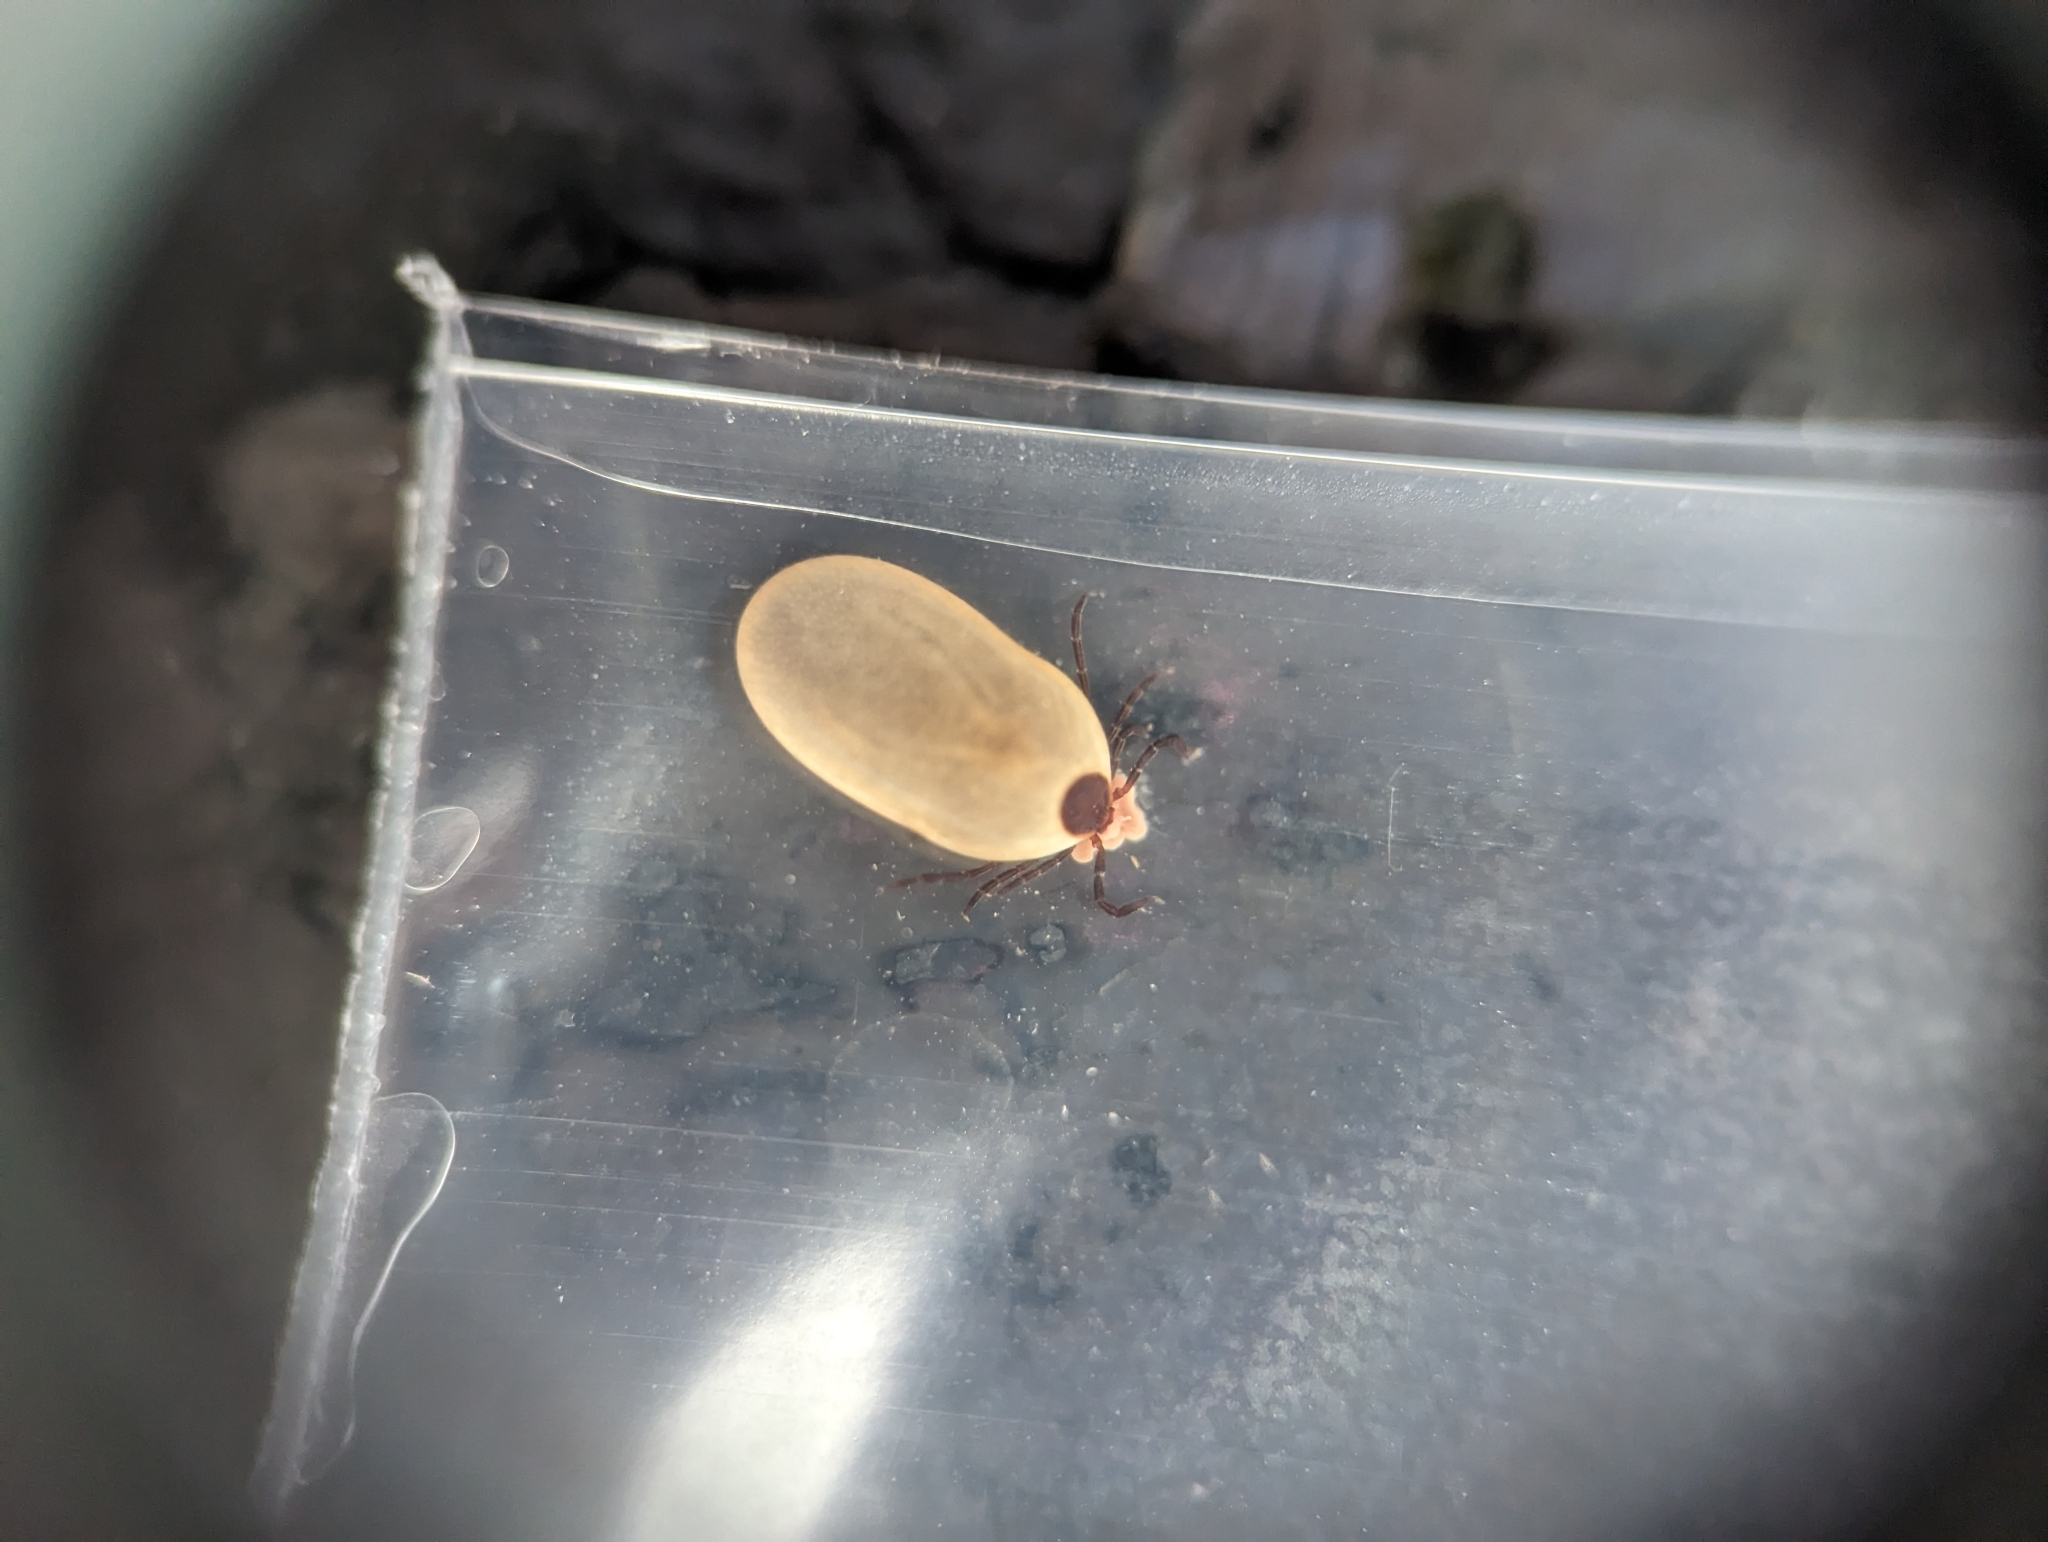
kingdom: Animalia
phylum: Arthropoda
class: Arachnida
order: Ixodida
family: Ixodidae
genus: Ixodes
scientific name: Ixodes scapularis
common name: Black legged tick
